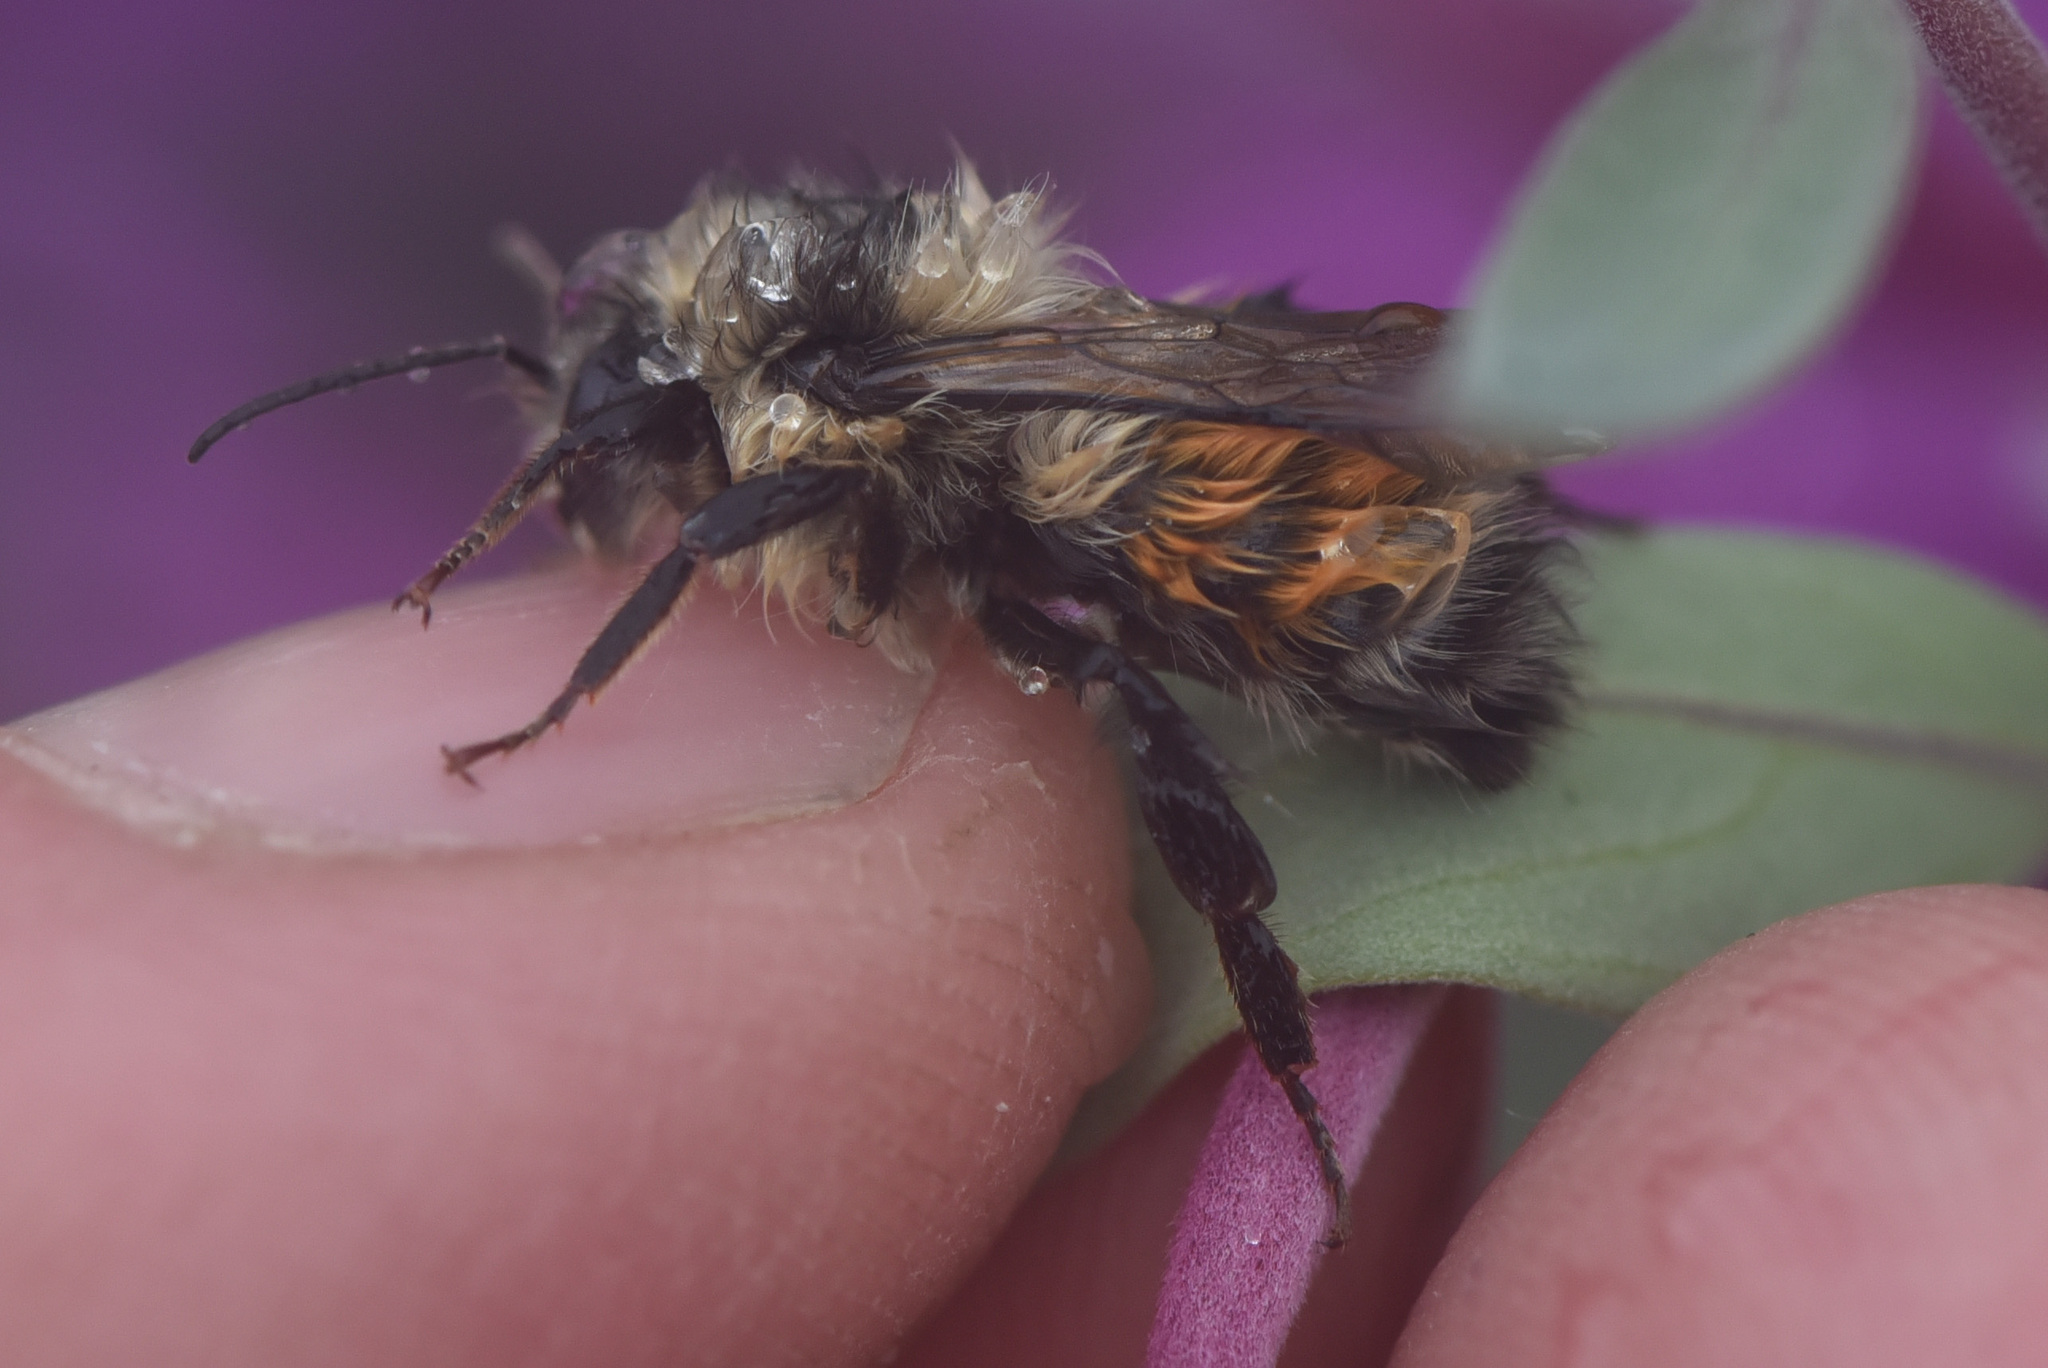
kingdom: Animalia
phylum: Arthropoda
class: Insecta
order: Hymenoptera
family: Apidae
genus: Bombus
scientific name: Bombus melanopygus
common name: Black tail bumble bee
